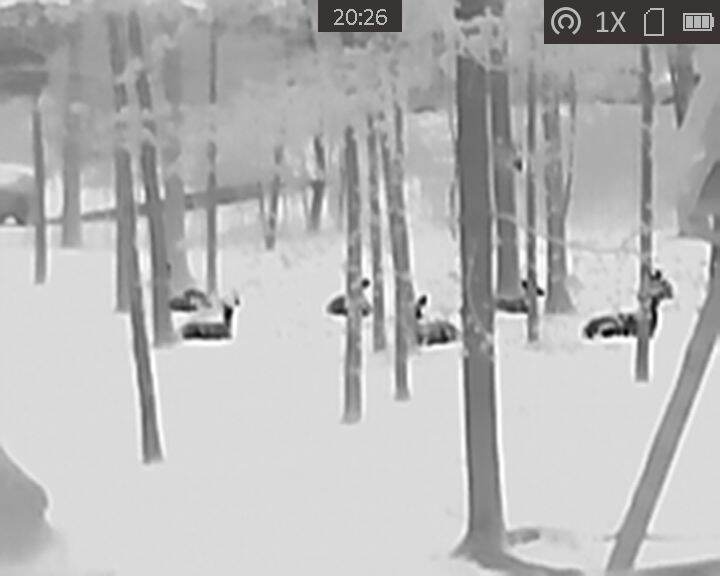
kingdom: Animalia
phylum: Chordata
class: Mammalia
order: Artiodactyla
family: Cervidae
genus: Odocoileus
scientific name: Odocoileus virginianus
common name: White-tailed deer
